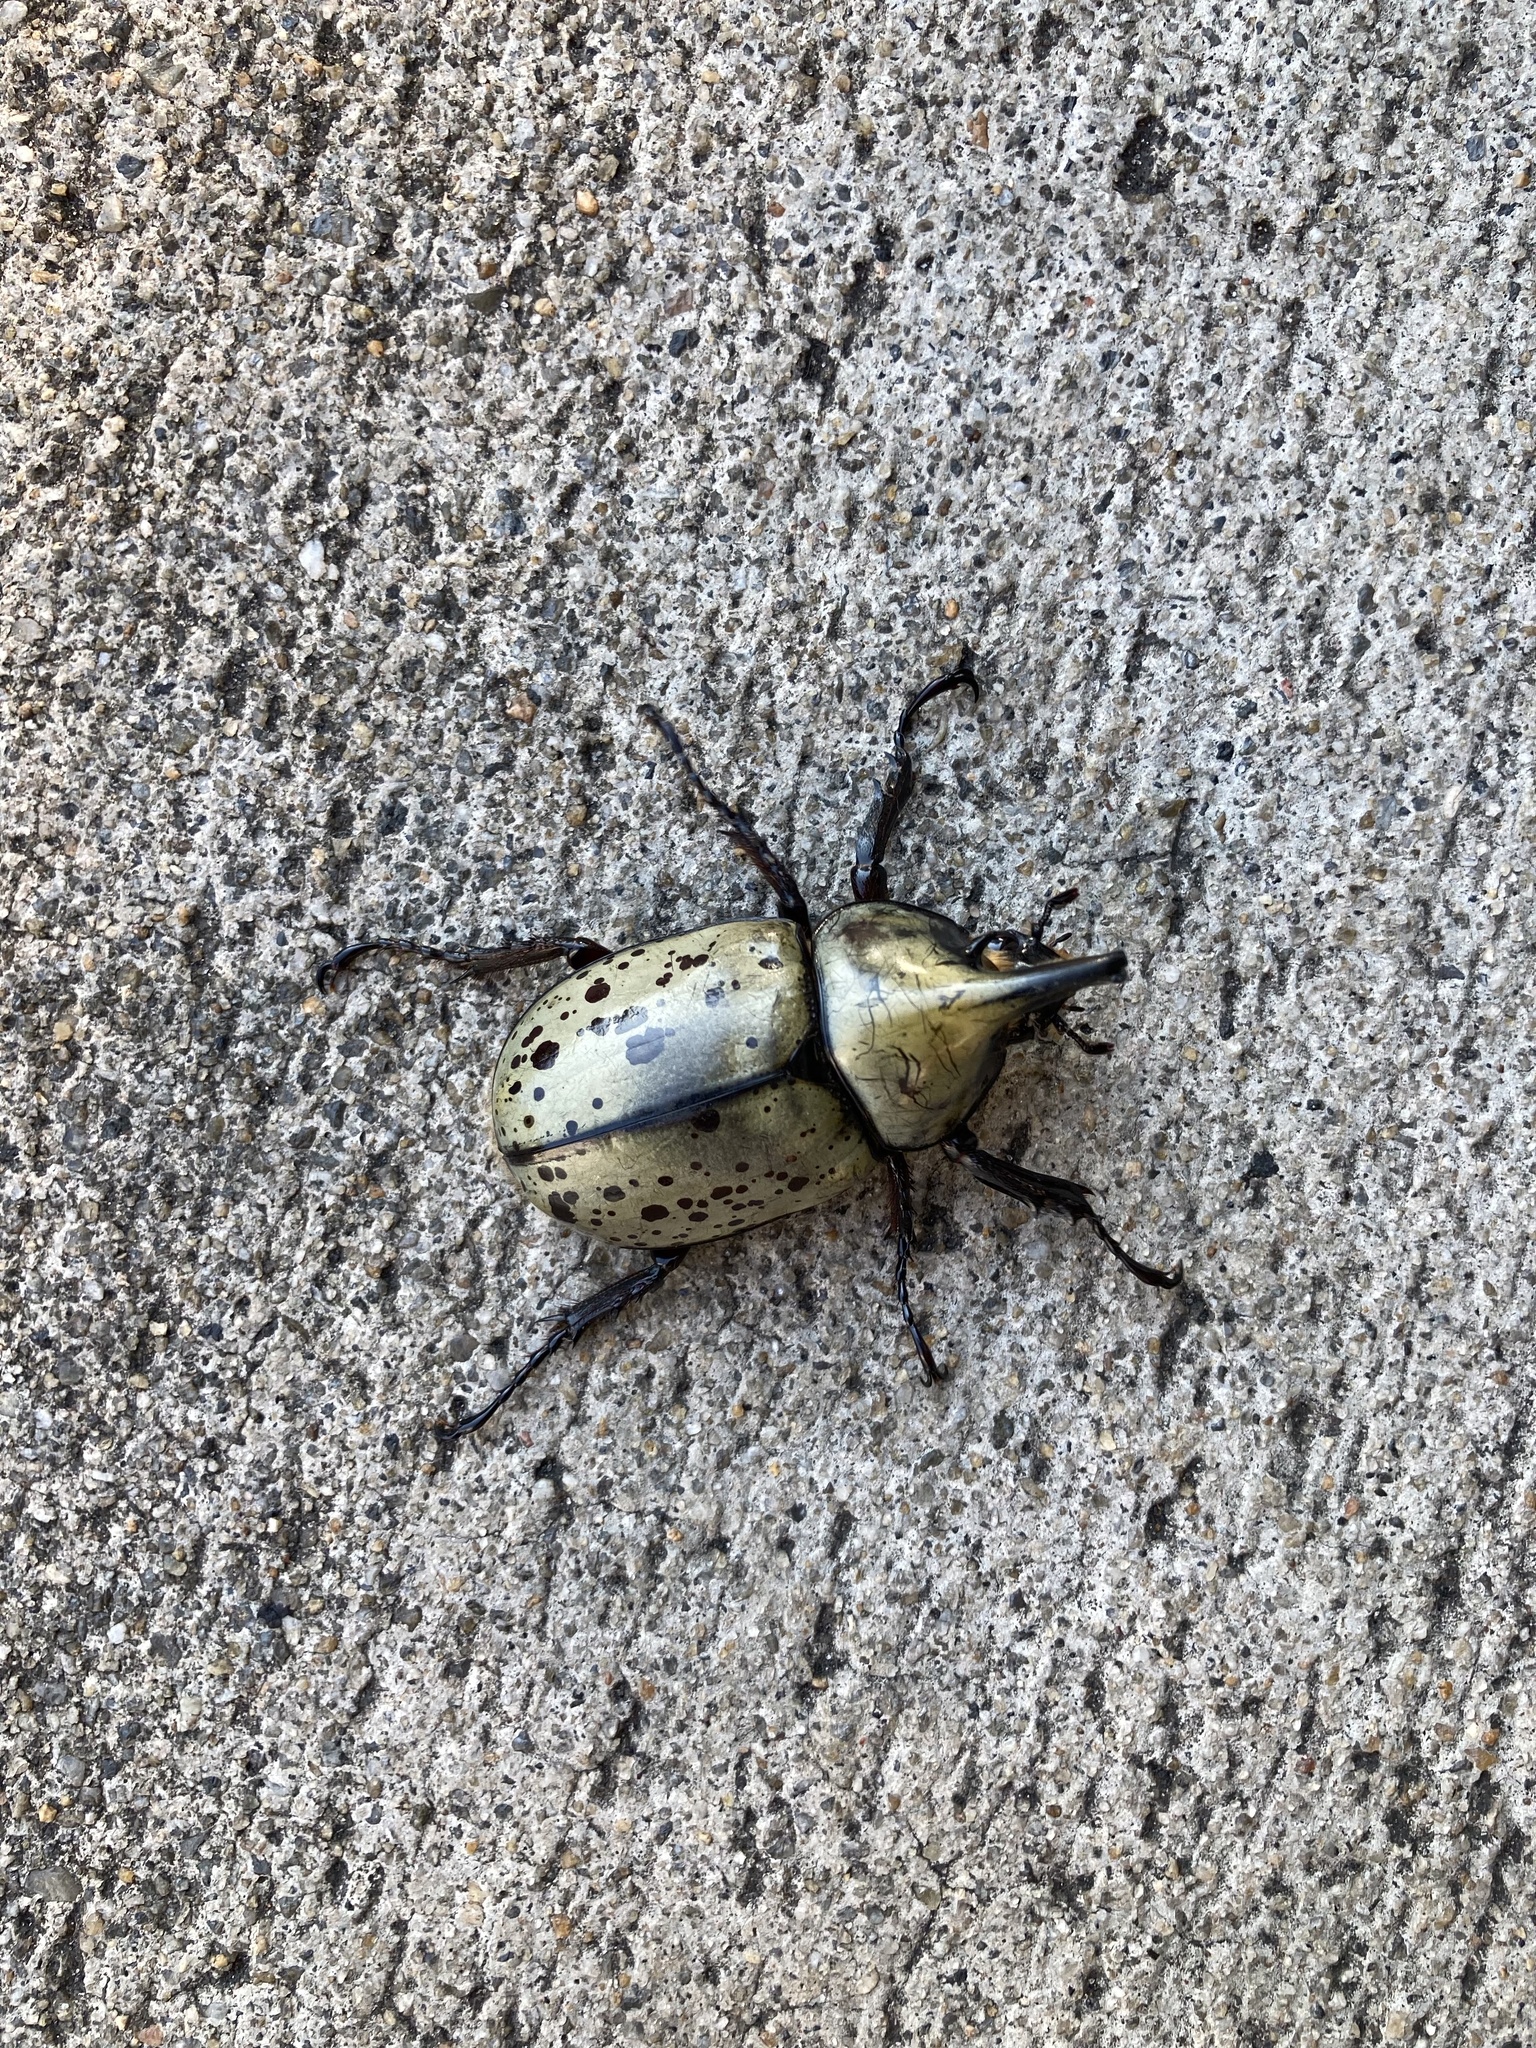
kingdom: Animalia
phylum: Arthropoda
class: Insecta
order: Coleoptera
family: Scarabaeidae
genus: Dynastes
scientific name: Dynastes tityus
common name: Eastern hercules beetle
